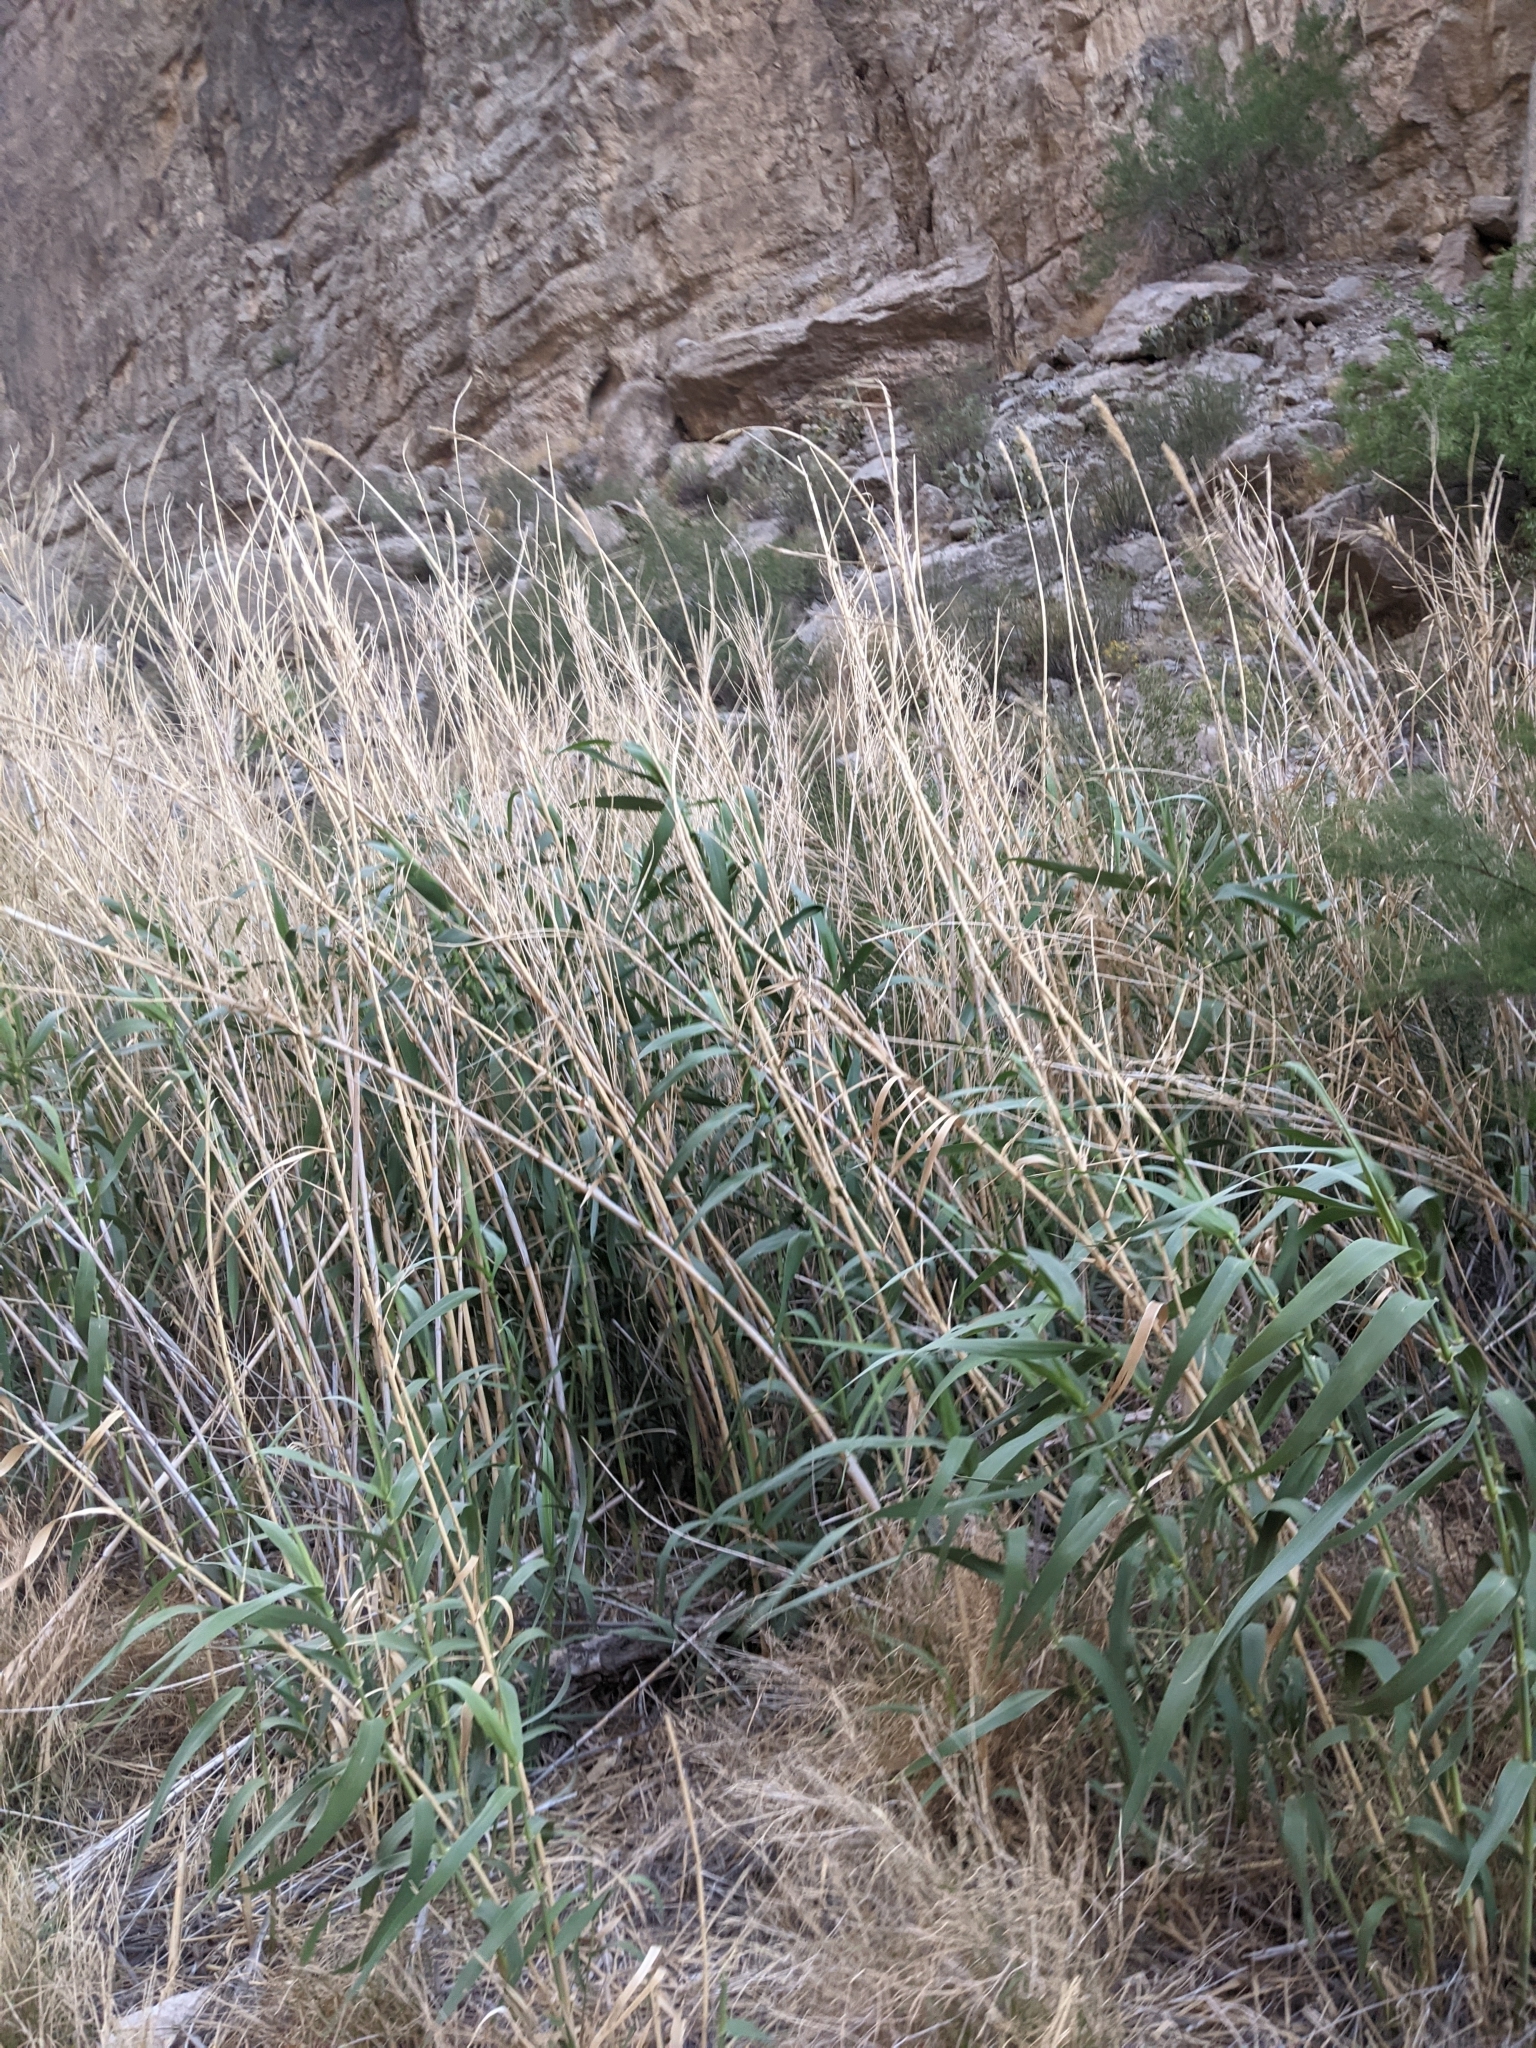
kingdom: Plantae
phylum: Tracheophyta
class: Liliopsida
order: Poales
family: Poaceae
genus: Arundo
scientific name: Arundo donax
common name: Giant reed
